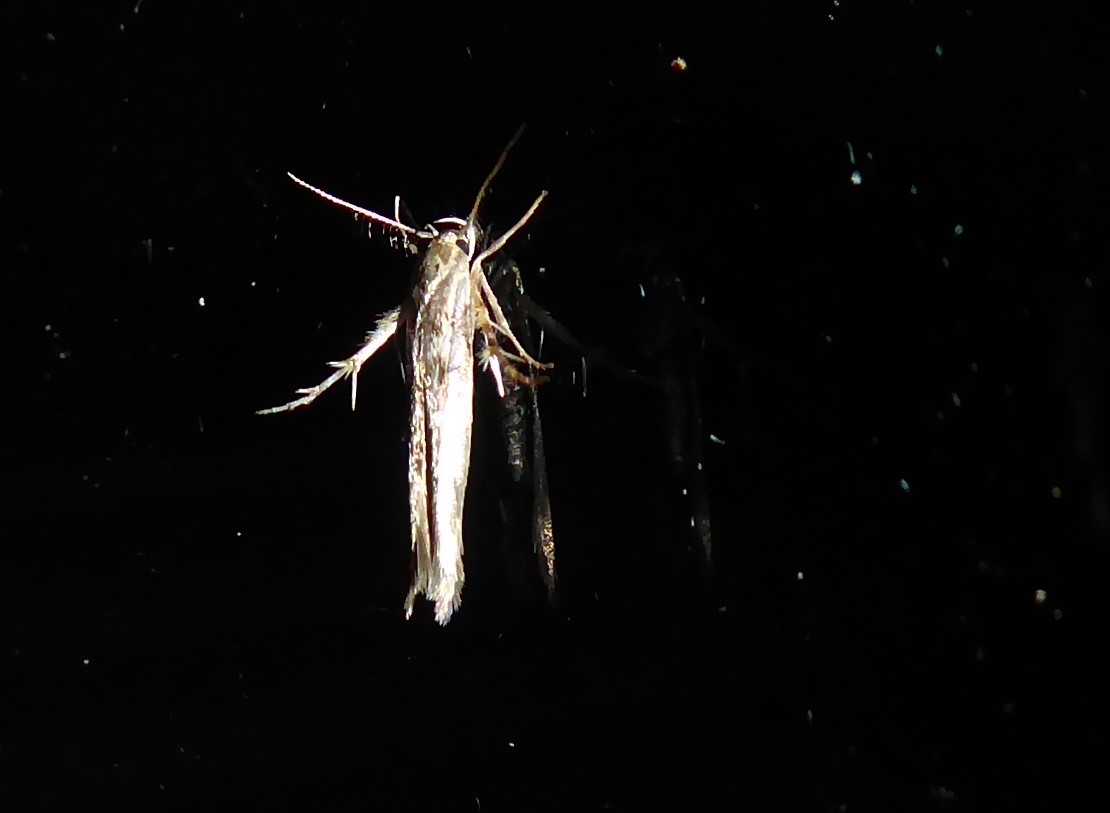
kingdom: Animalia
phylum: Arthropoda
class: Insecta
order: Lepidoptera
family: Stathmopodidae
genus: Stathmopoda
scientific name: Stathmopoda plumbiflua
